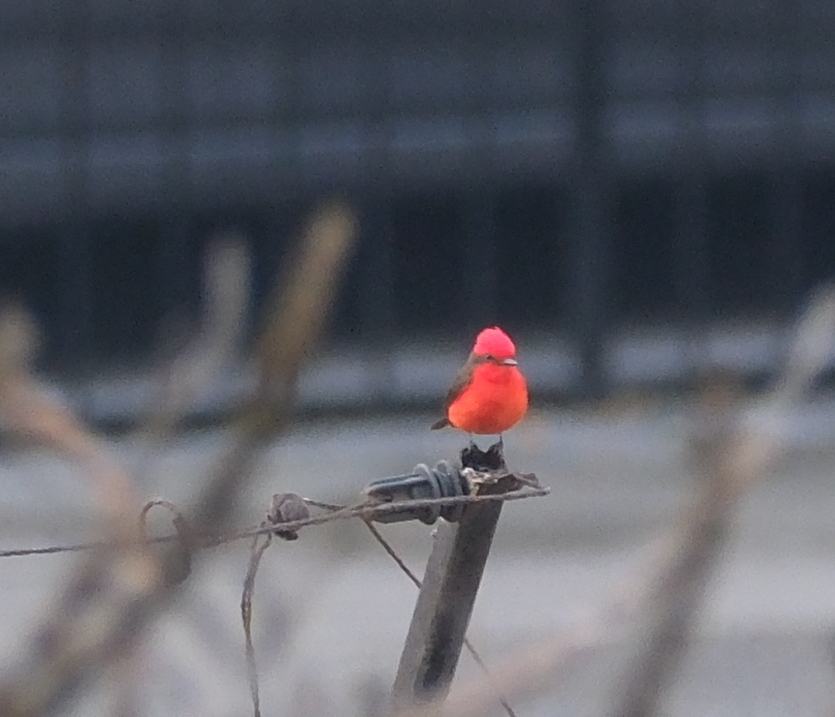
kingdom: Animalia
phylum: Chordata
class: Aves
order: Passeriformes
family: Tyrannidae
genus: Pyrocephalus
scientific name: Pyrocephalus rubinus
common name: Vermilion flycatcher
